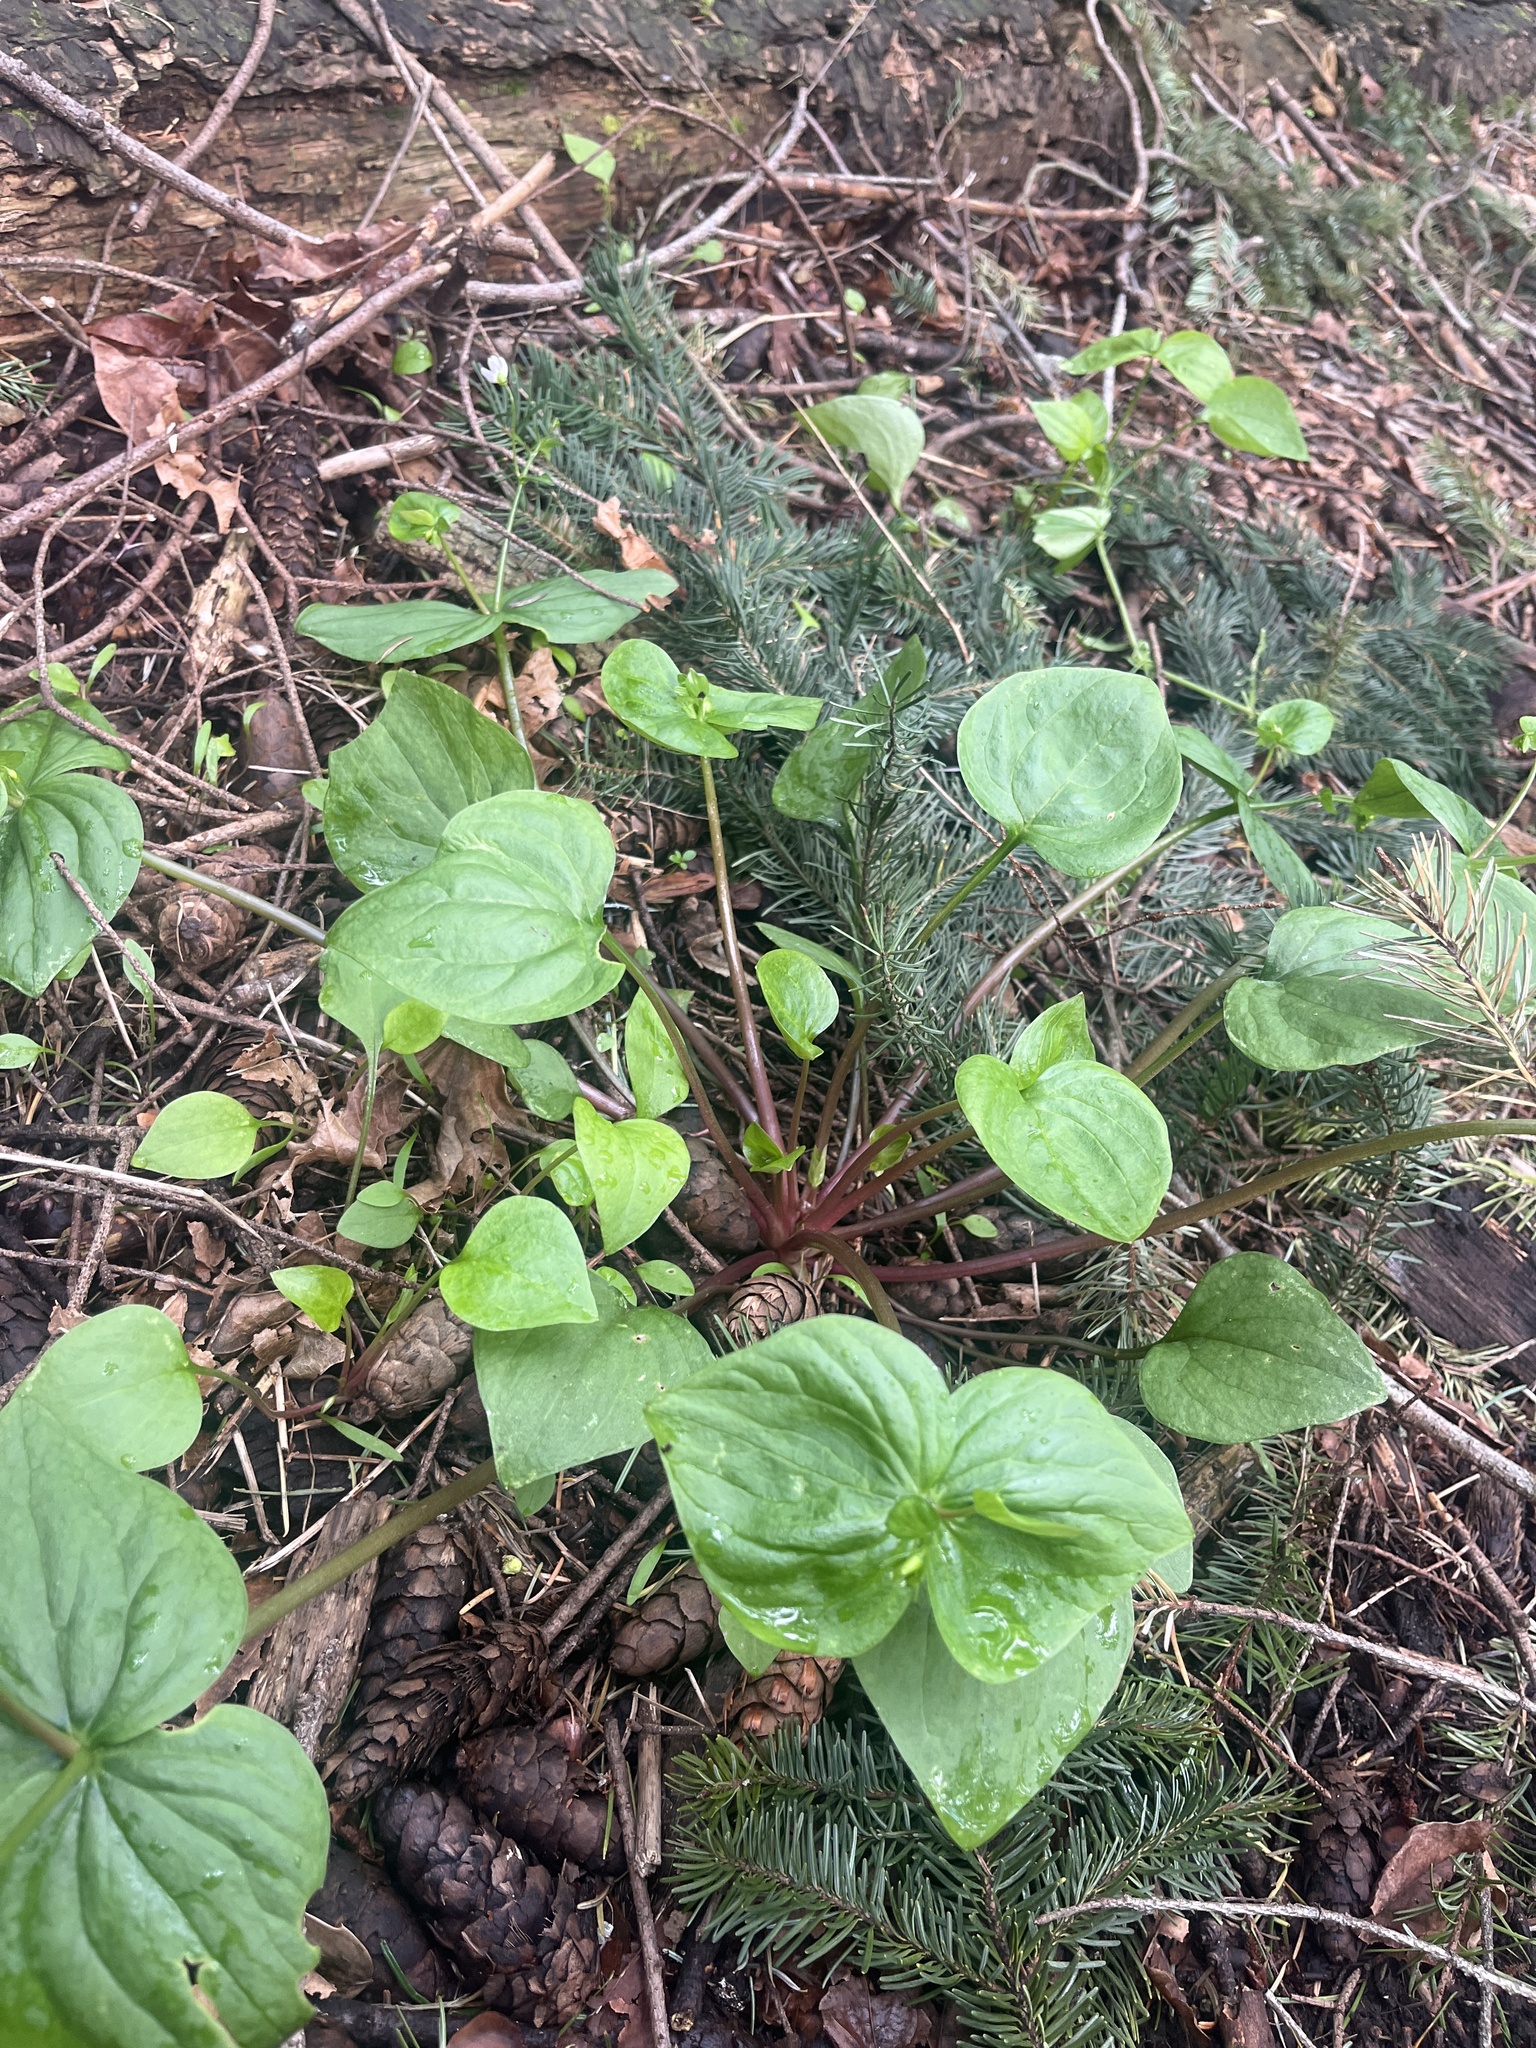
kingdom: Plantae
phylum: Tracheophyta
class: Magnoliopsida
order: Caryophyllales
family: Montiaceae
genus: Claytonia
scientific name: Claytonia sibirica
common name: Pink purslane
